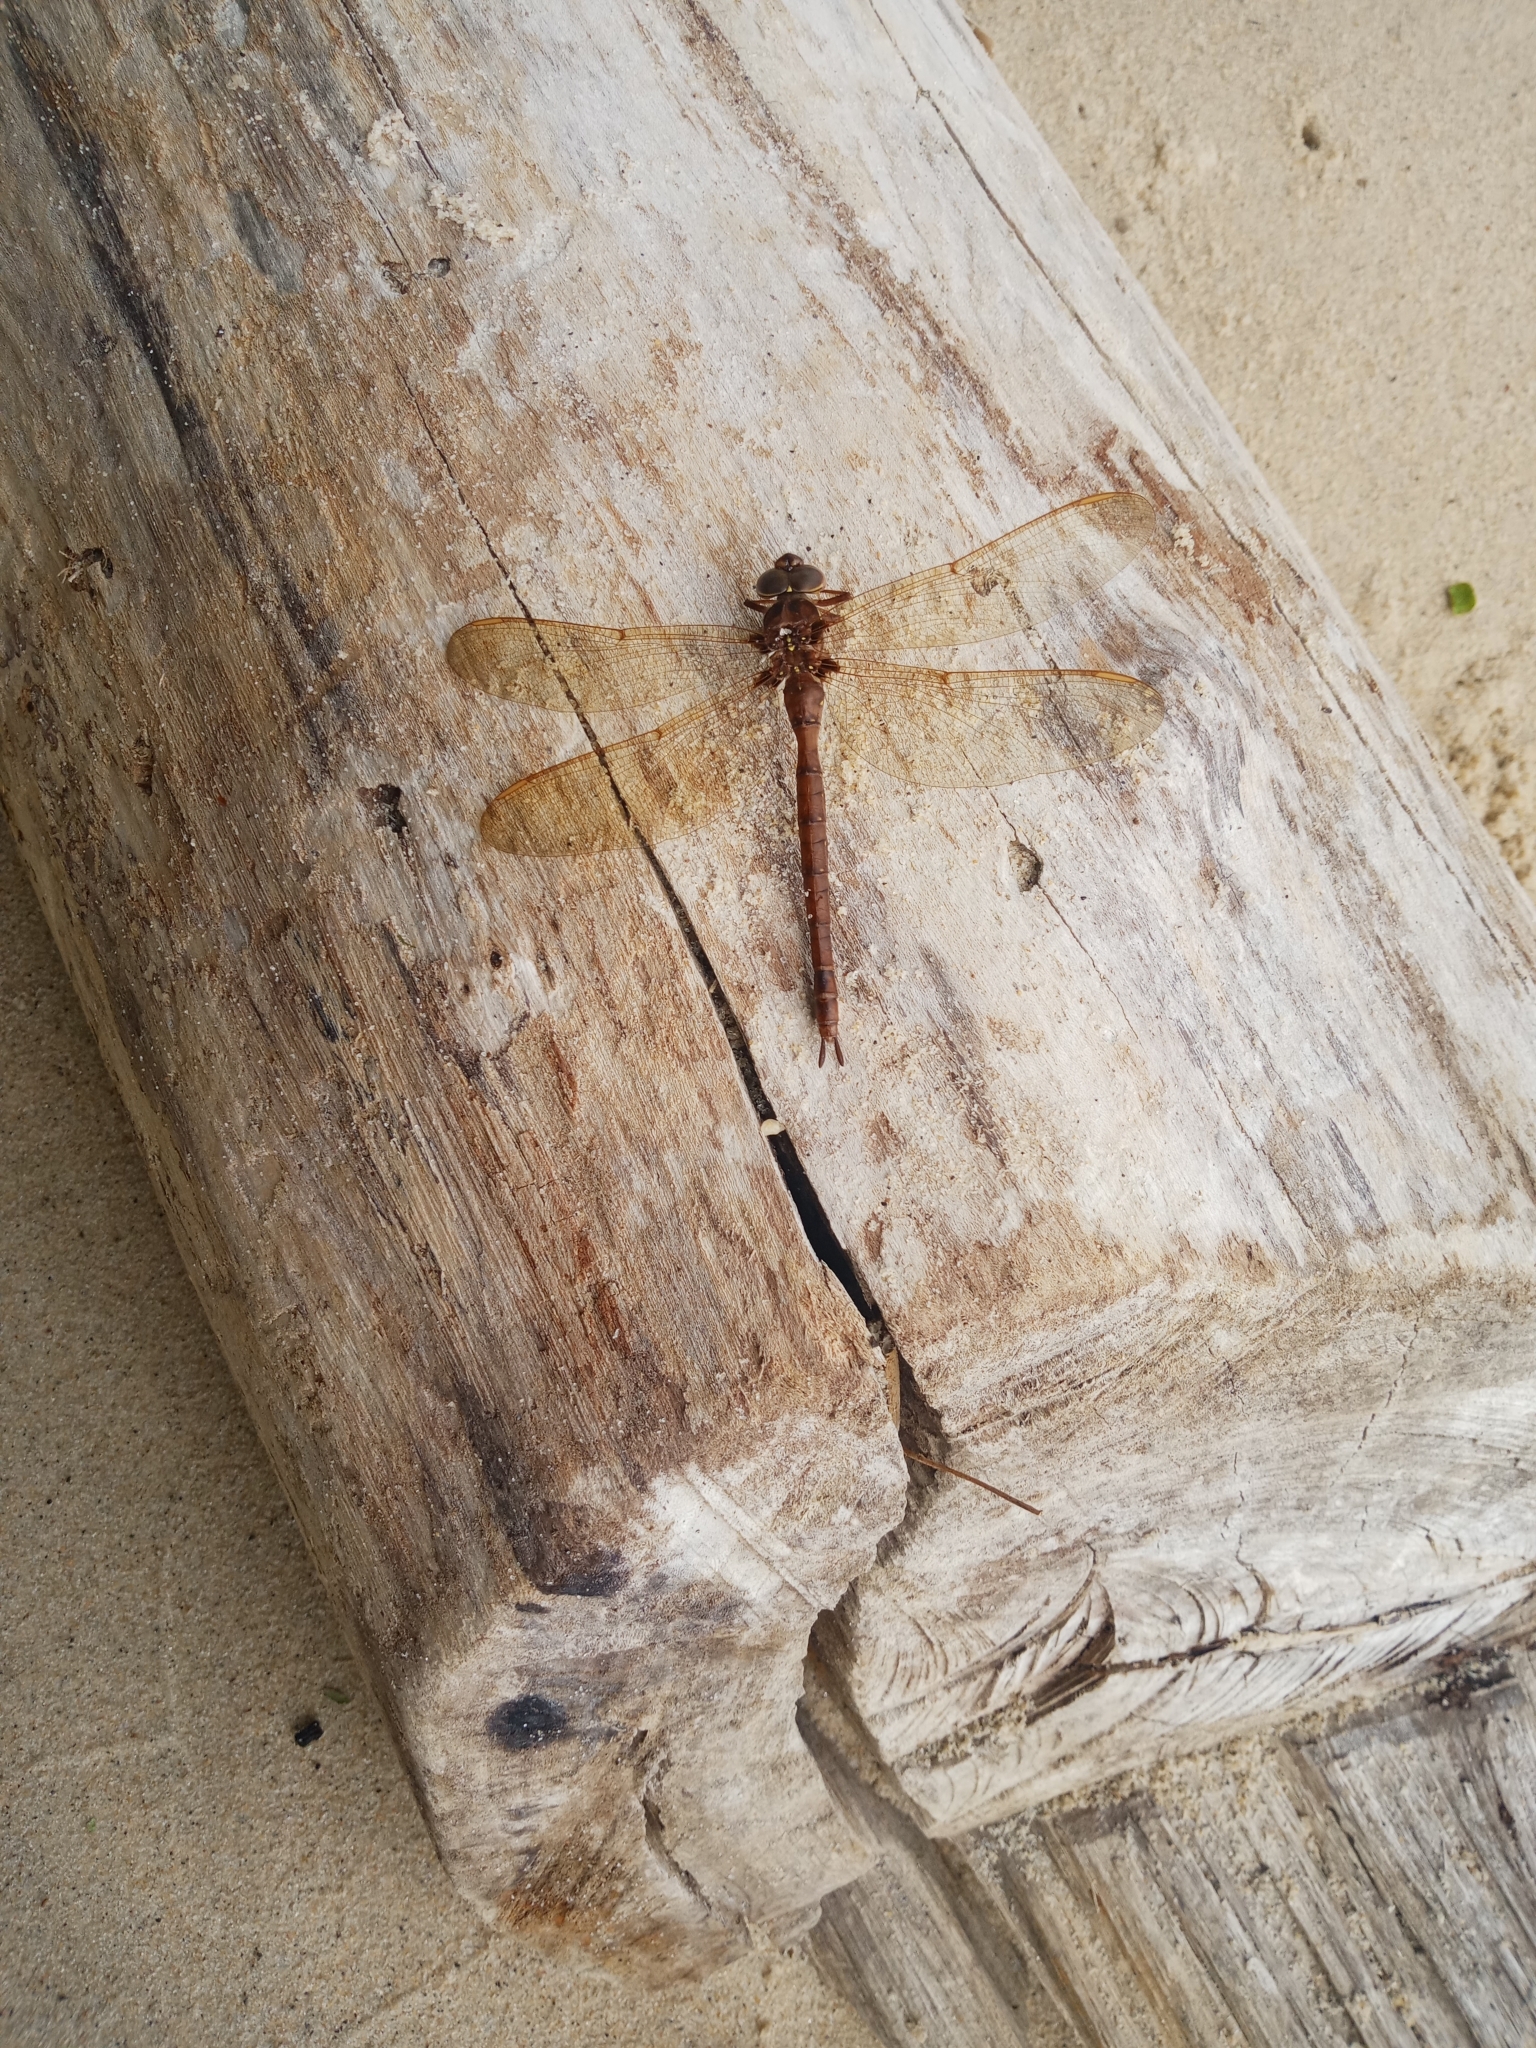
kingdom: Animalia
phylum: Arthropoda
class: Insecta
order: Odonata
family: Aeshnidae
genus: Boyeria
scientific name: Boyeria vinosa
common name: Fawn darner
